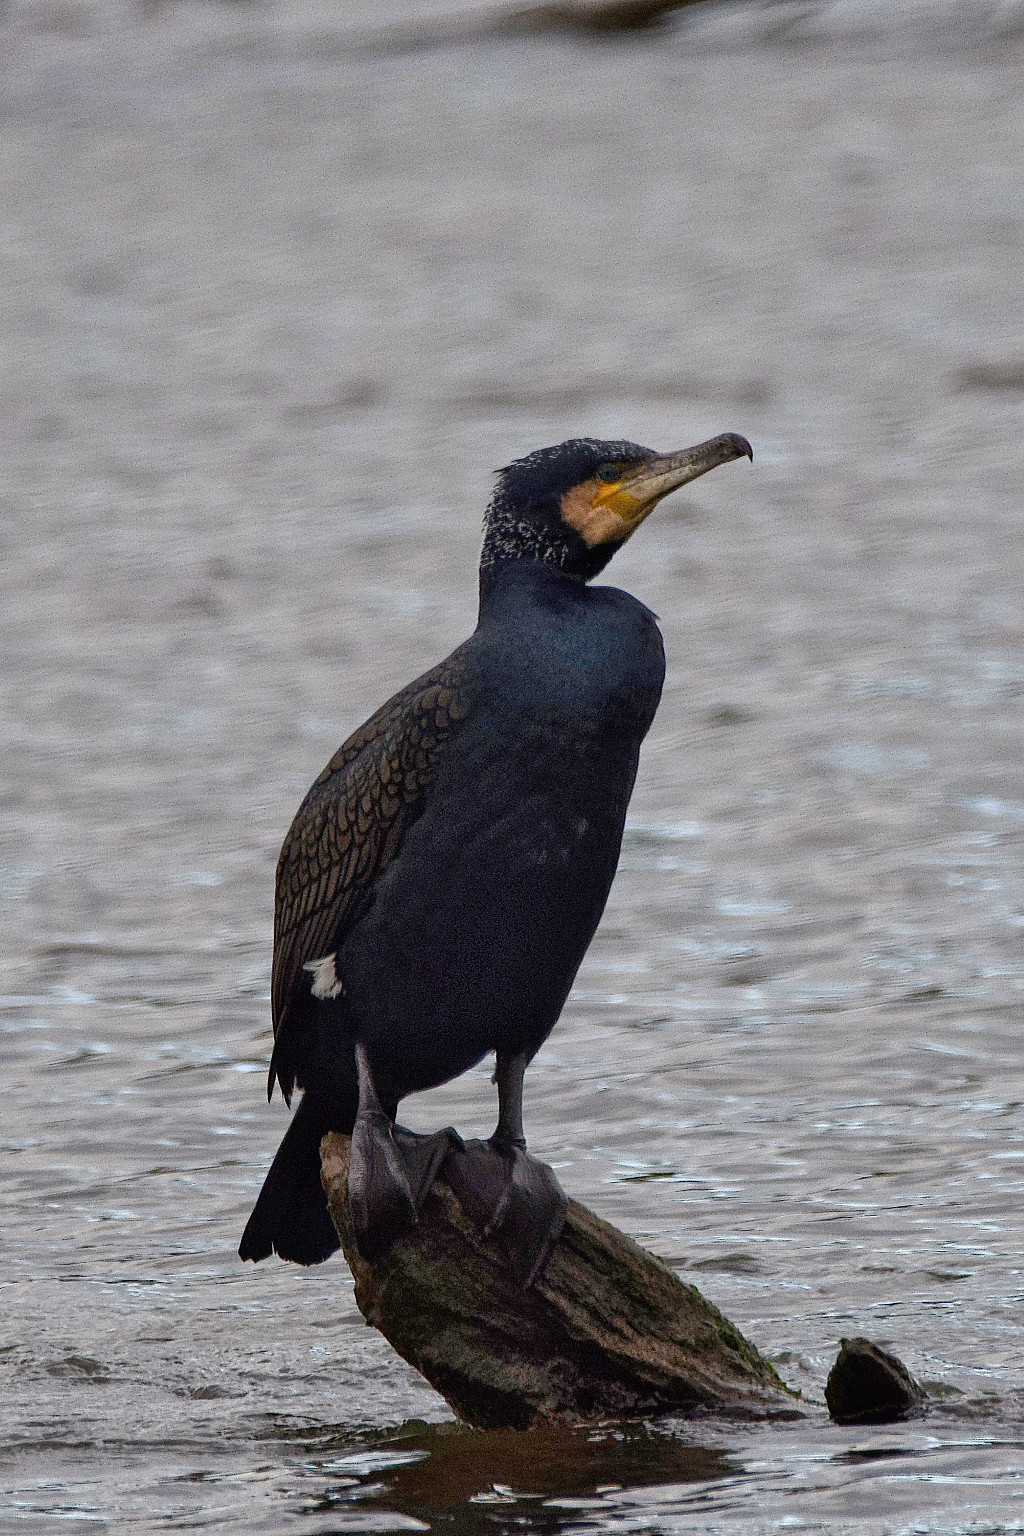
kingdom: Animalia
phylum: Chordata
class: Aves
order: Suliformes
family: Phalacrocoracidae
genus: Phalacrocorax
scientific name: Phalacrocorax carbo
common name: Great cormorant
